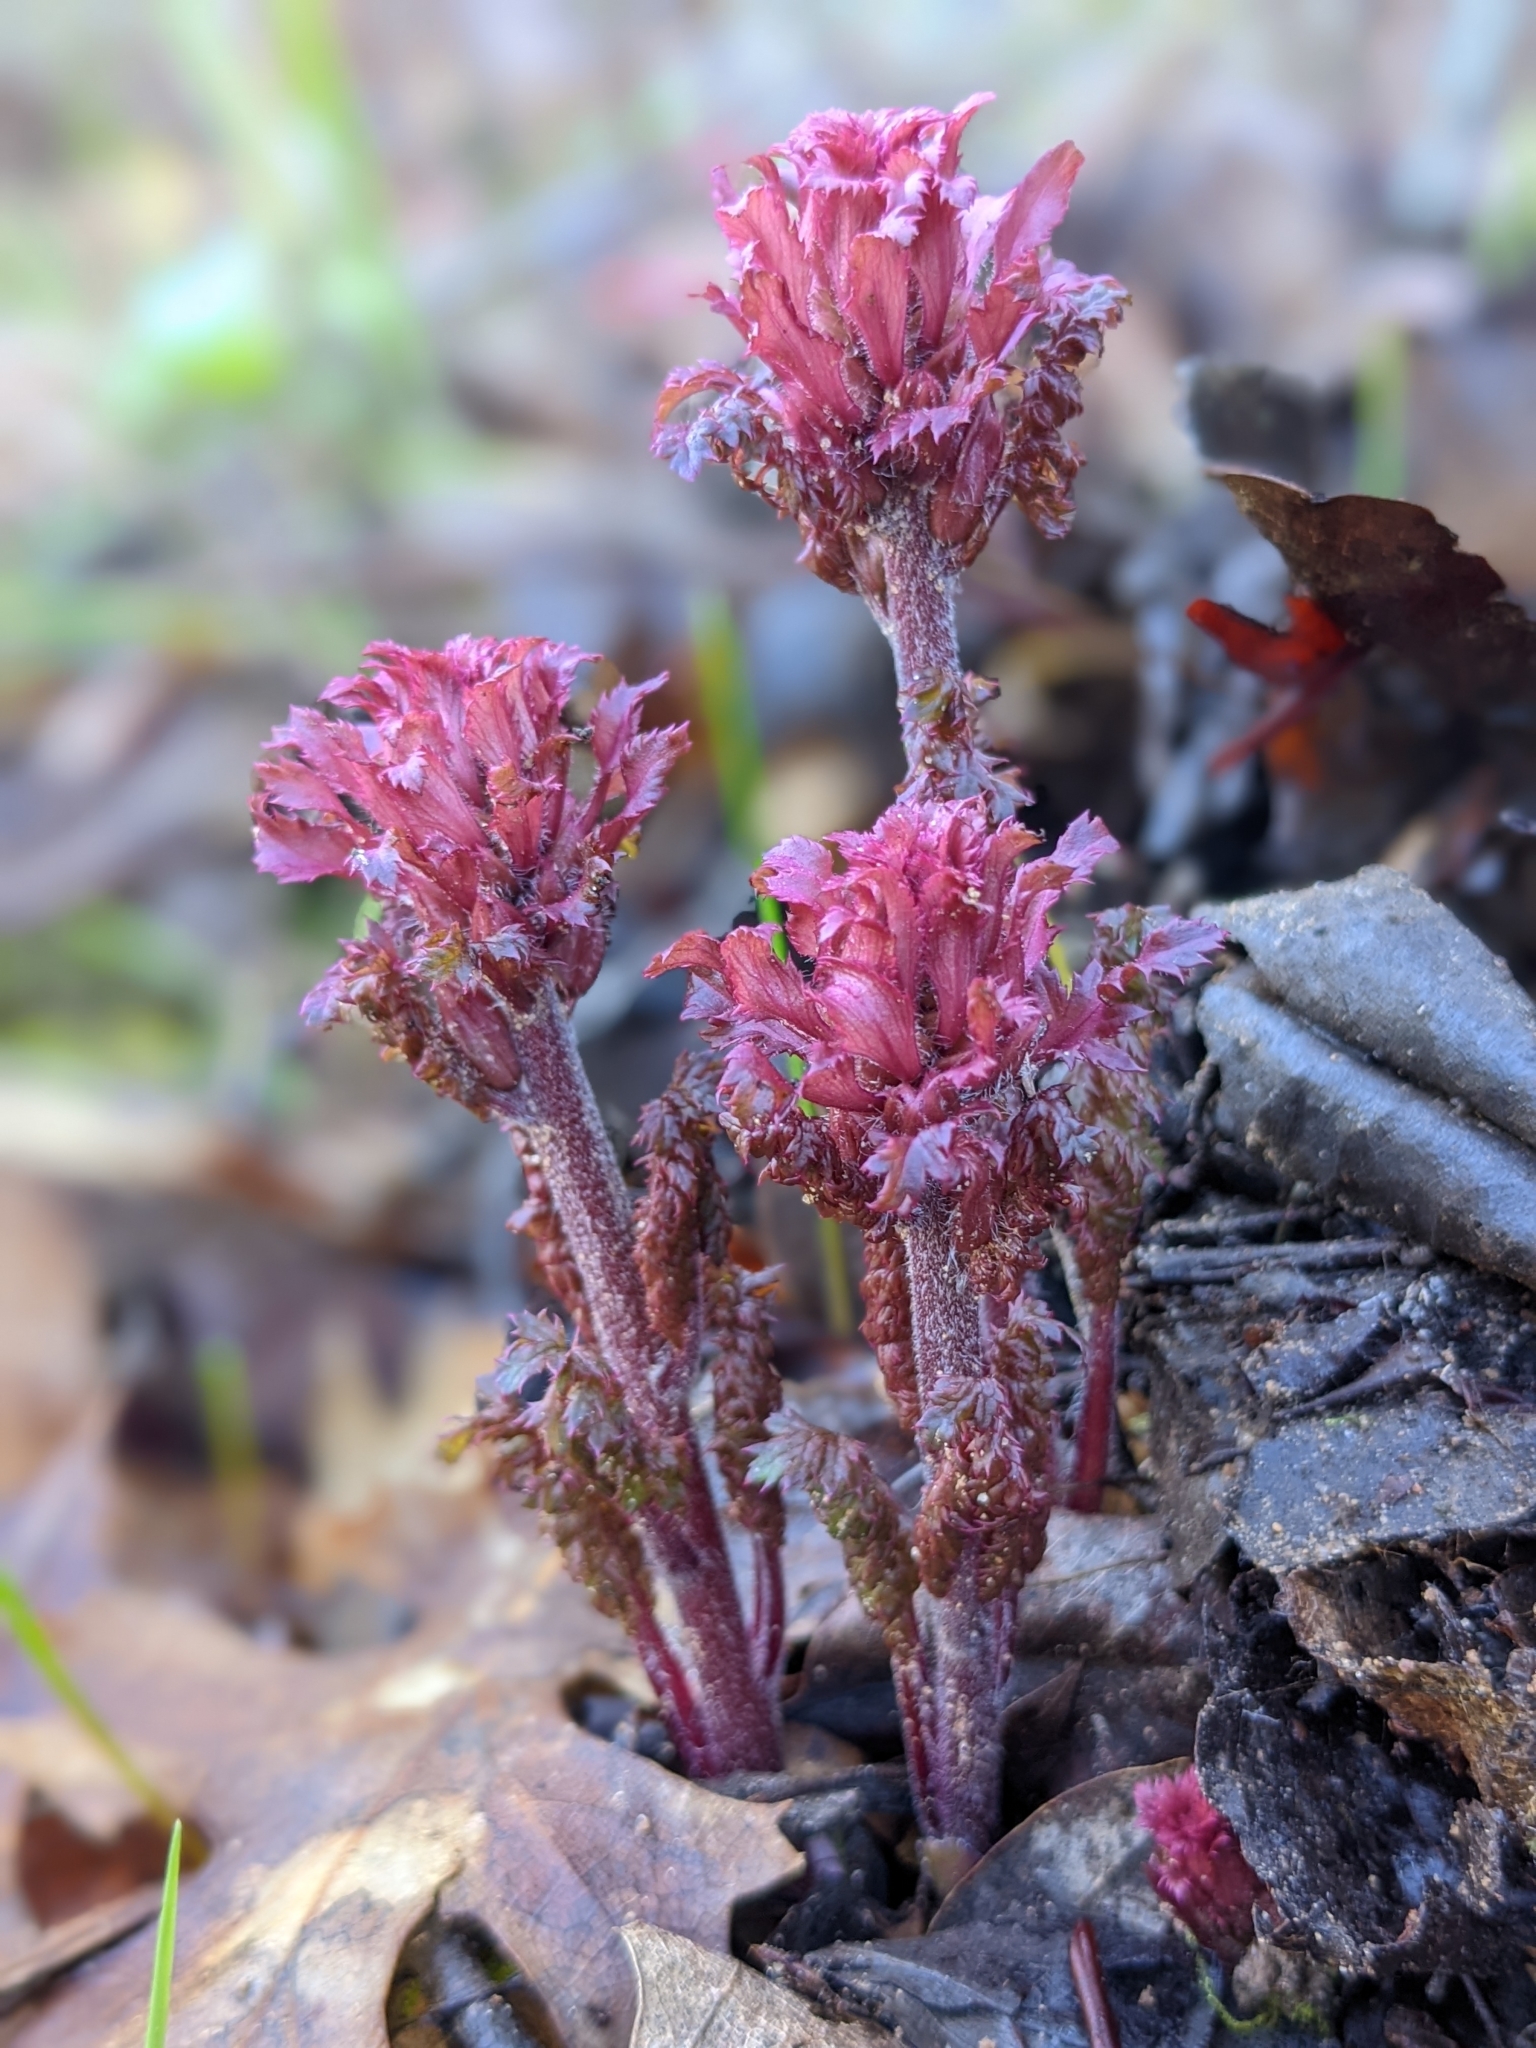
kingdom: Plantae
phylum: Tracheophyta
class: Magnoliopsida
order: Lamiales
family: Orobanchaceae
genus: Pedicularis
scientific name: Pedicularis densiflora
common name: Indian warrior
